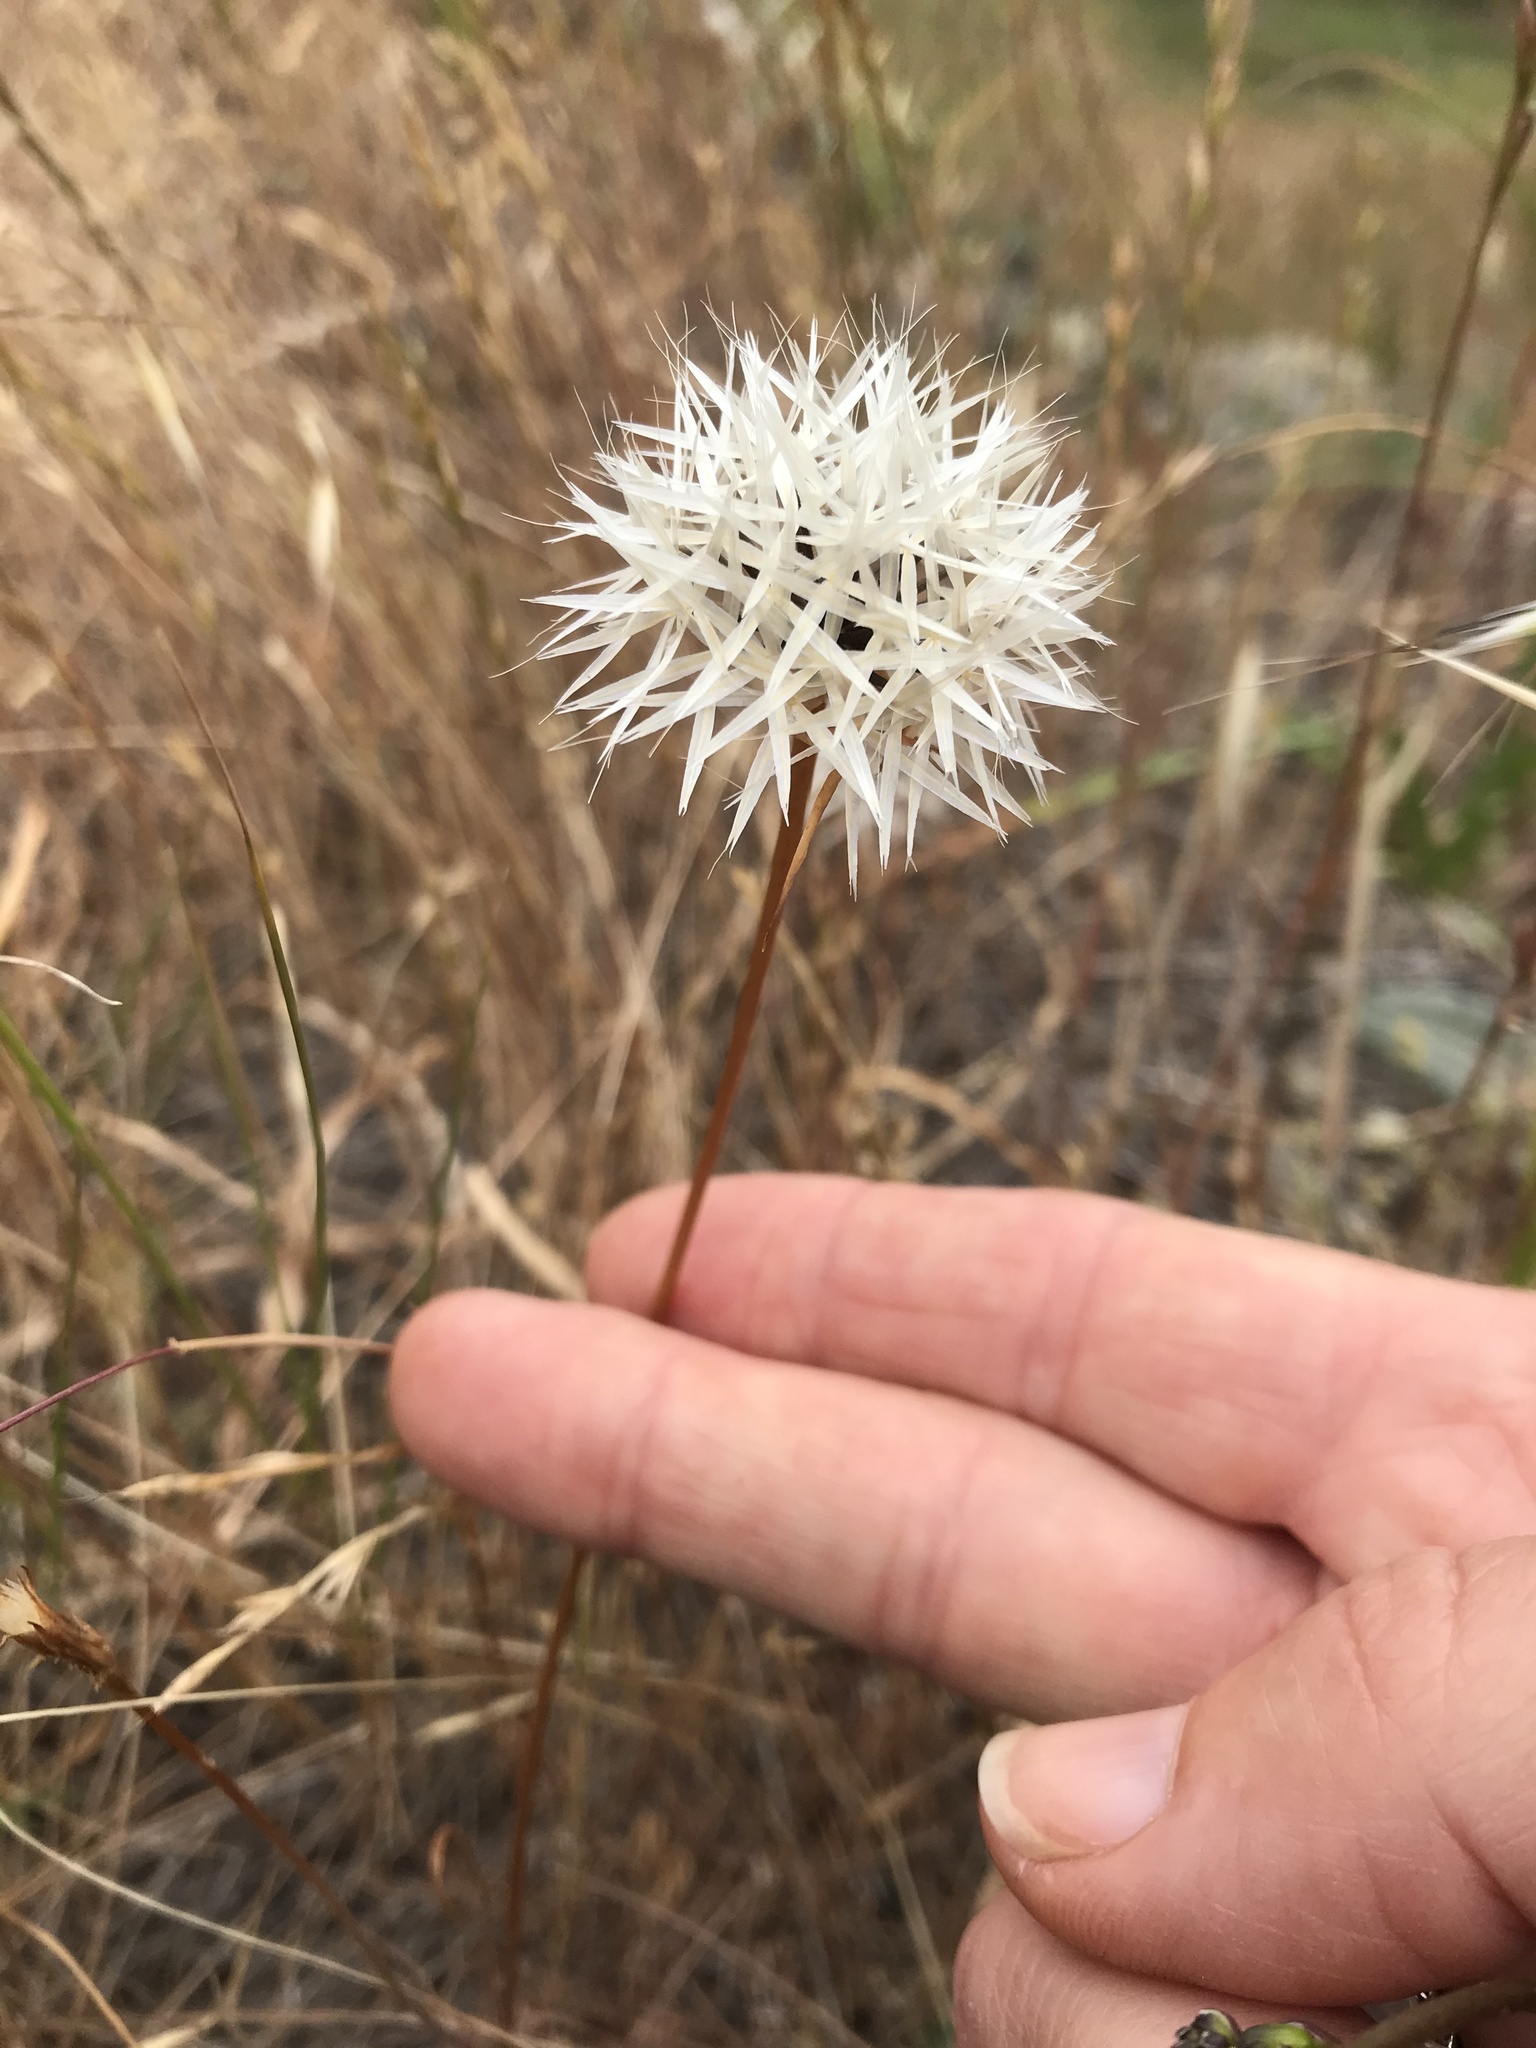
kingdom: Plantae
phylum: Tracheophyta
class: Magnoliopsida
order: Asterales
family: Asteraceae
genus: Microseris
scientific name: Microseris lindleyi
